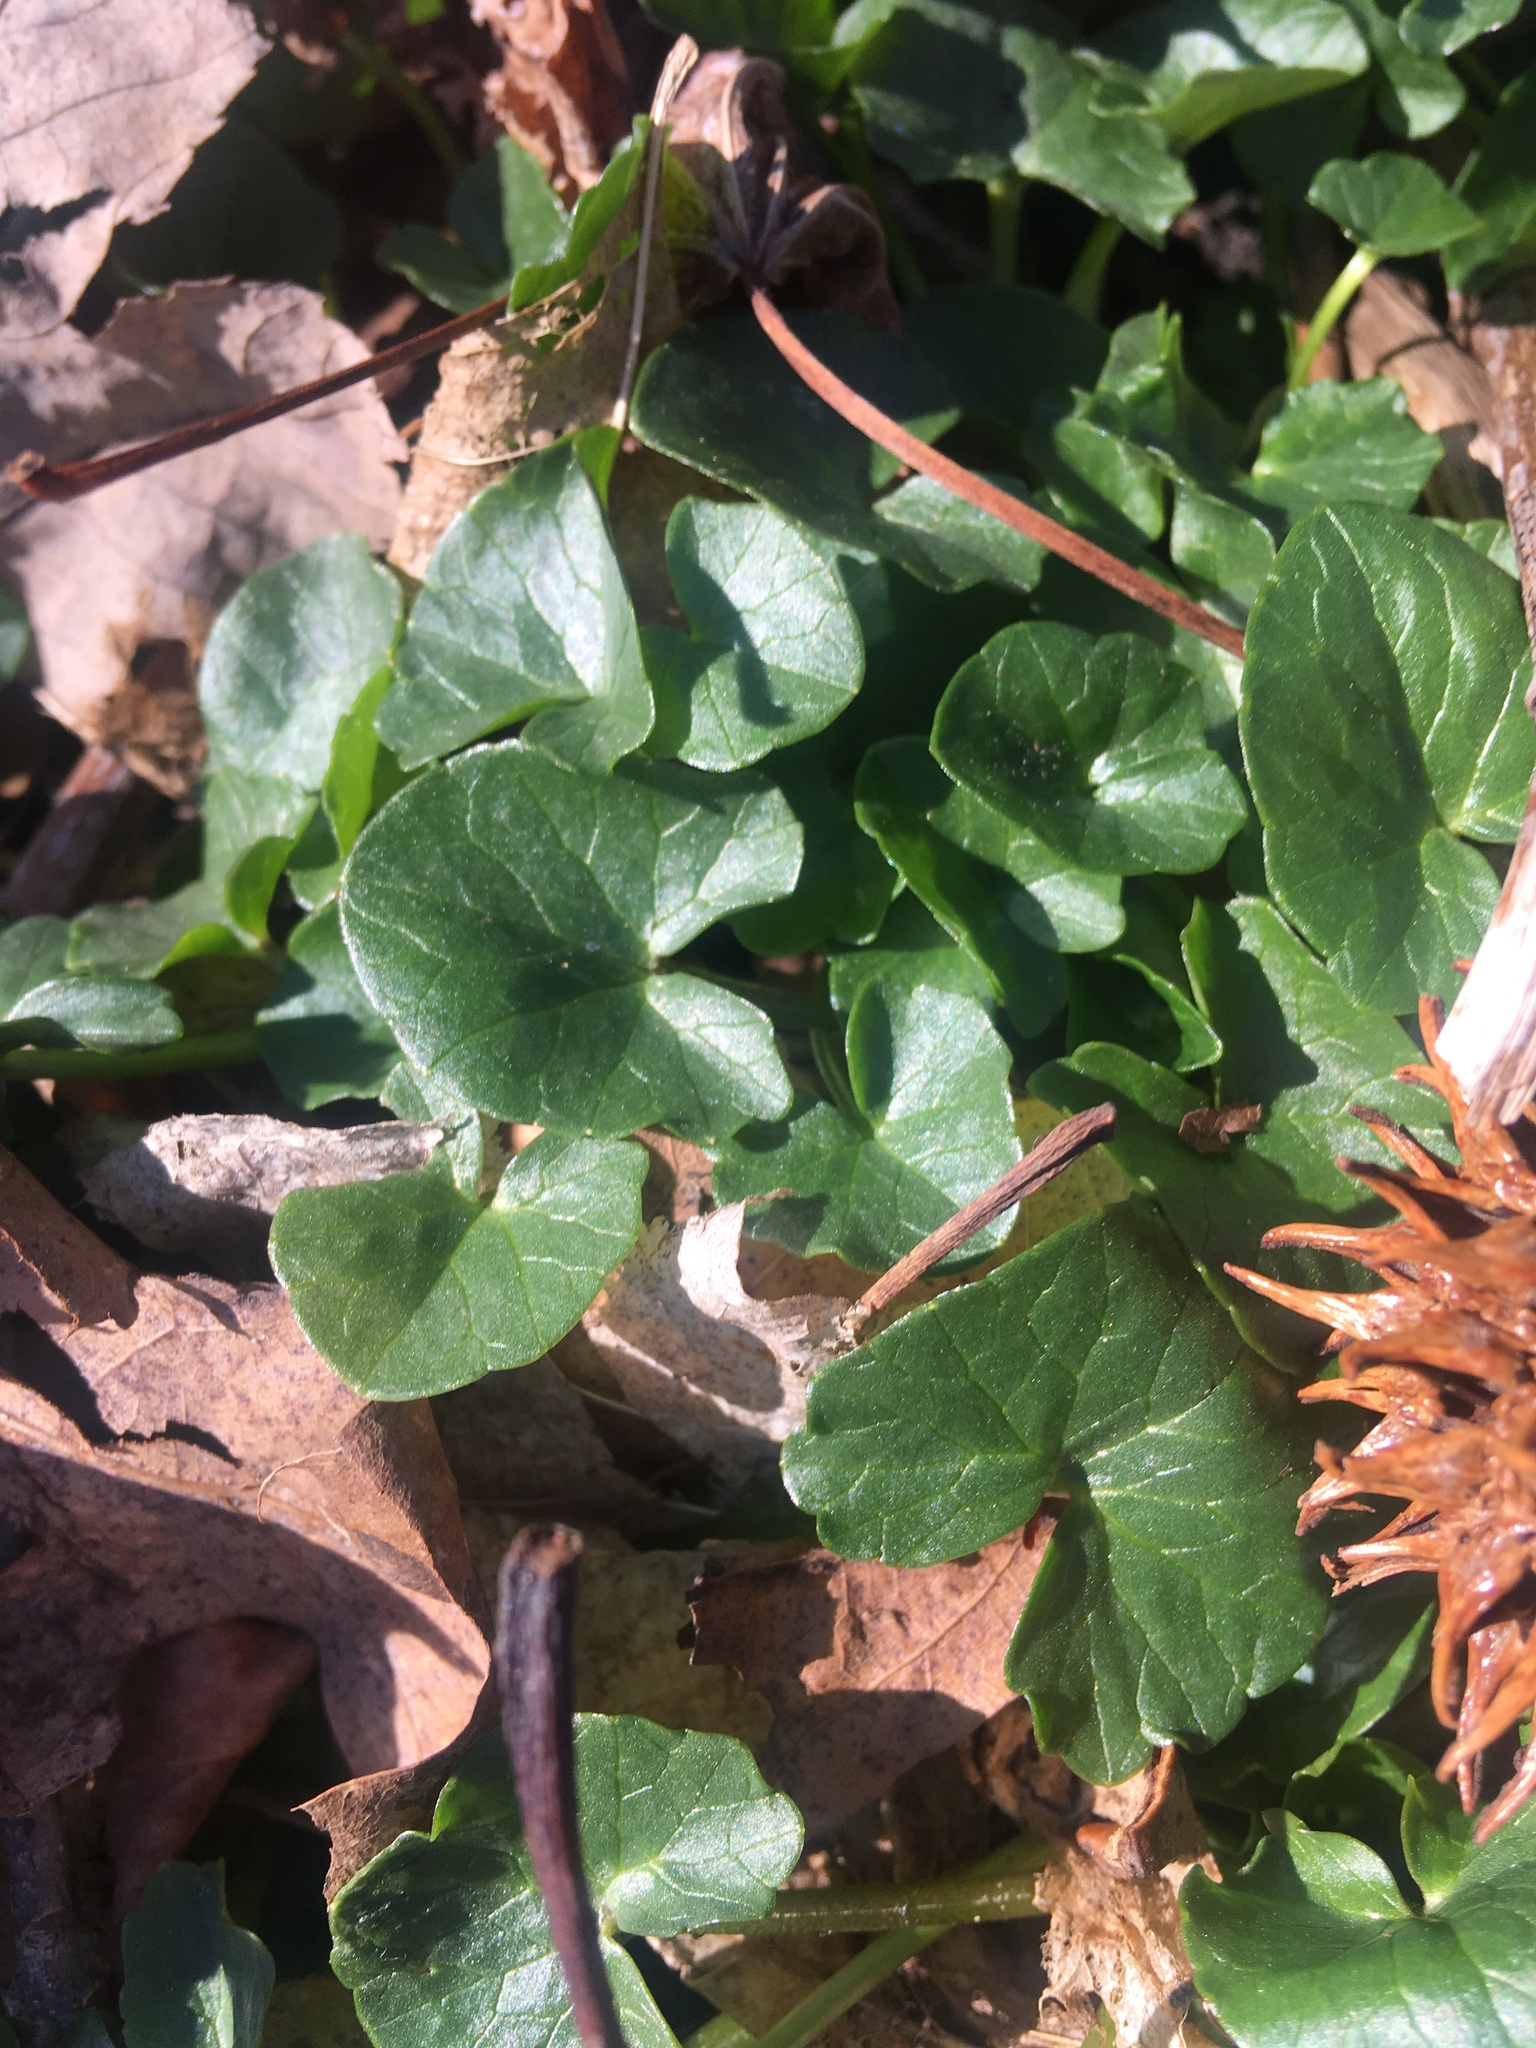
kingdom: Plantae
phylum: Tracheophyta
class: Magnoliopsida
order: Ranunculales
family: Ranunculaceae
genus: Ficaria
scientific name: Ficaria verna
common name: Lesser celandine
